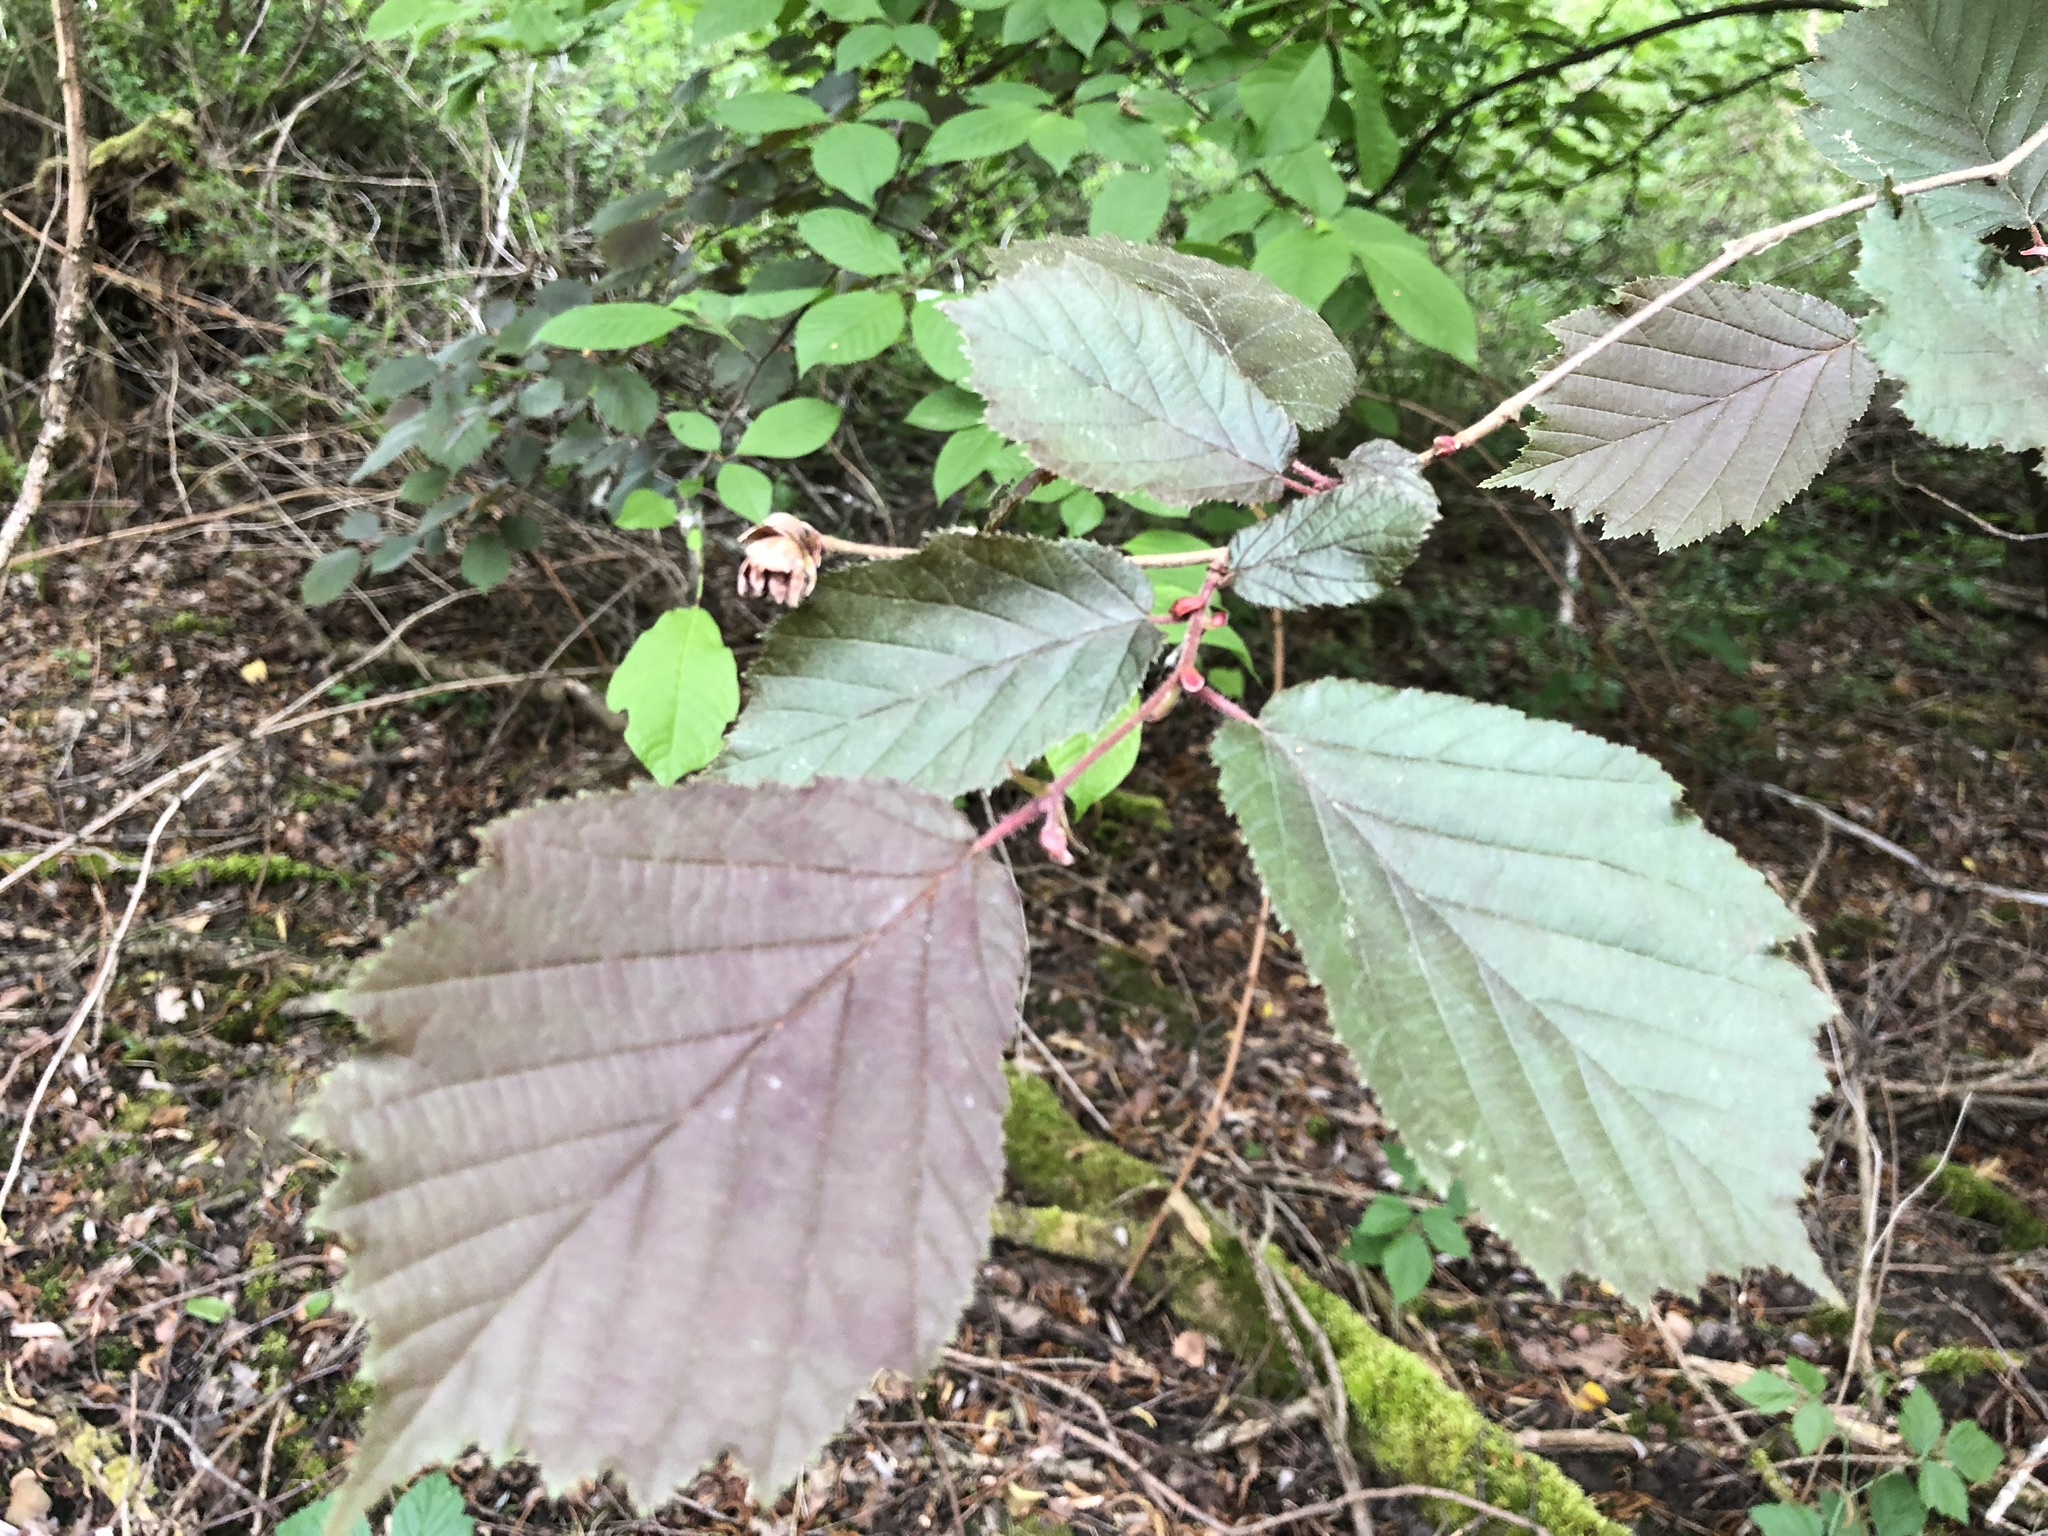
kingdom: Plantae
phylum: Tracheophyta
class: Magnoliopsida
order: Fagales
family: Betulaceae
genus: Corylus
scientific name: Corylus avellana
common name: European hazel
